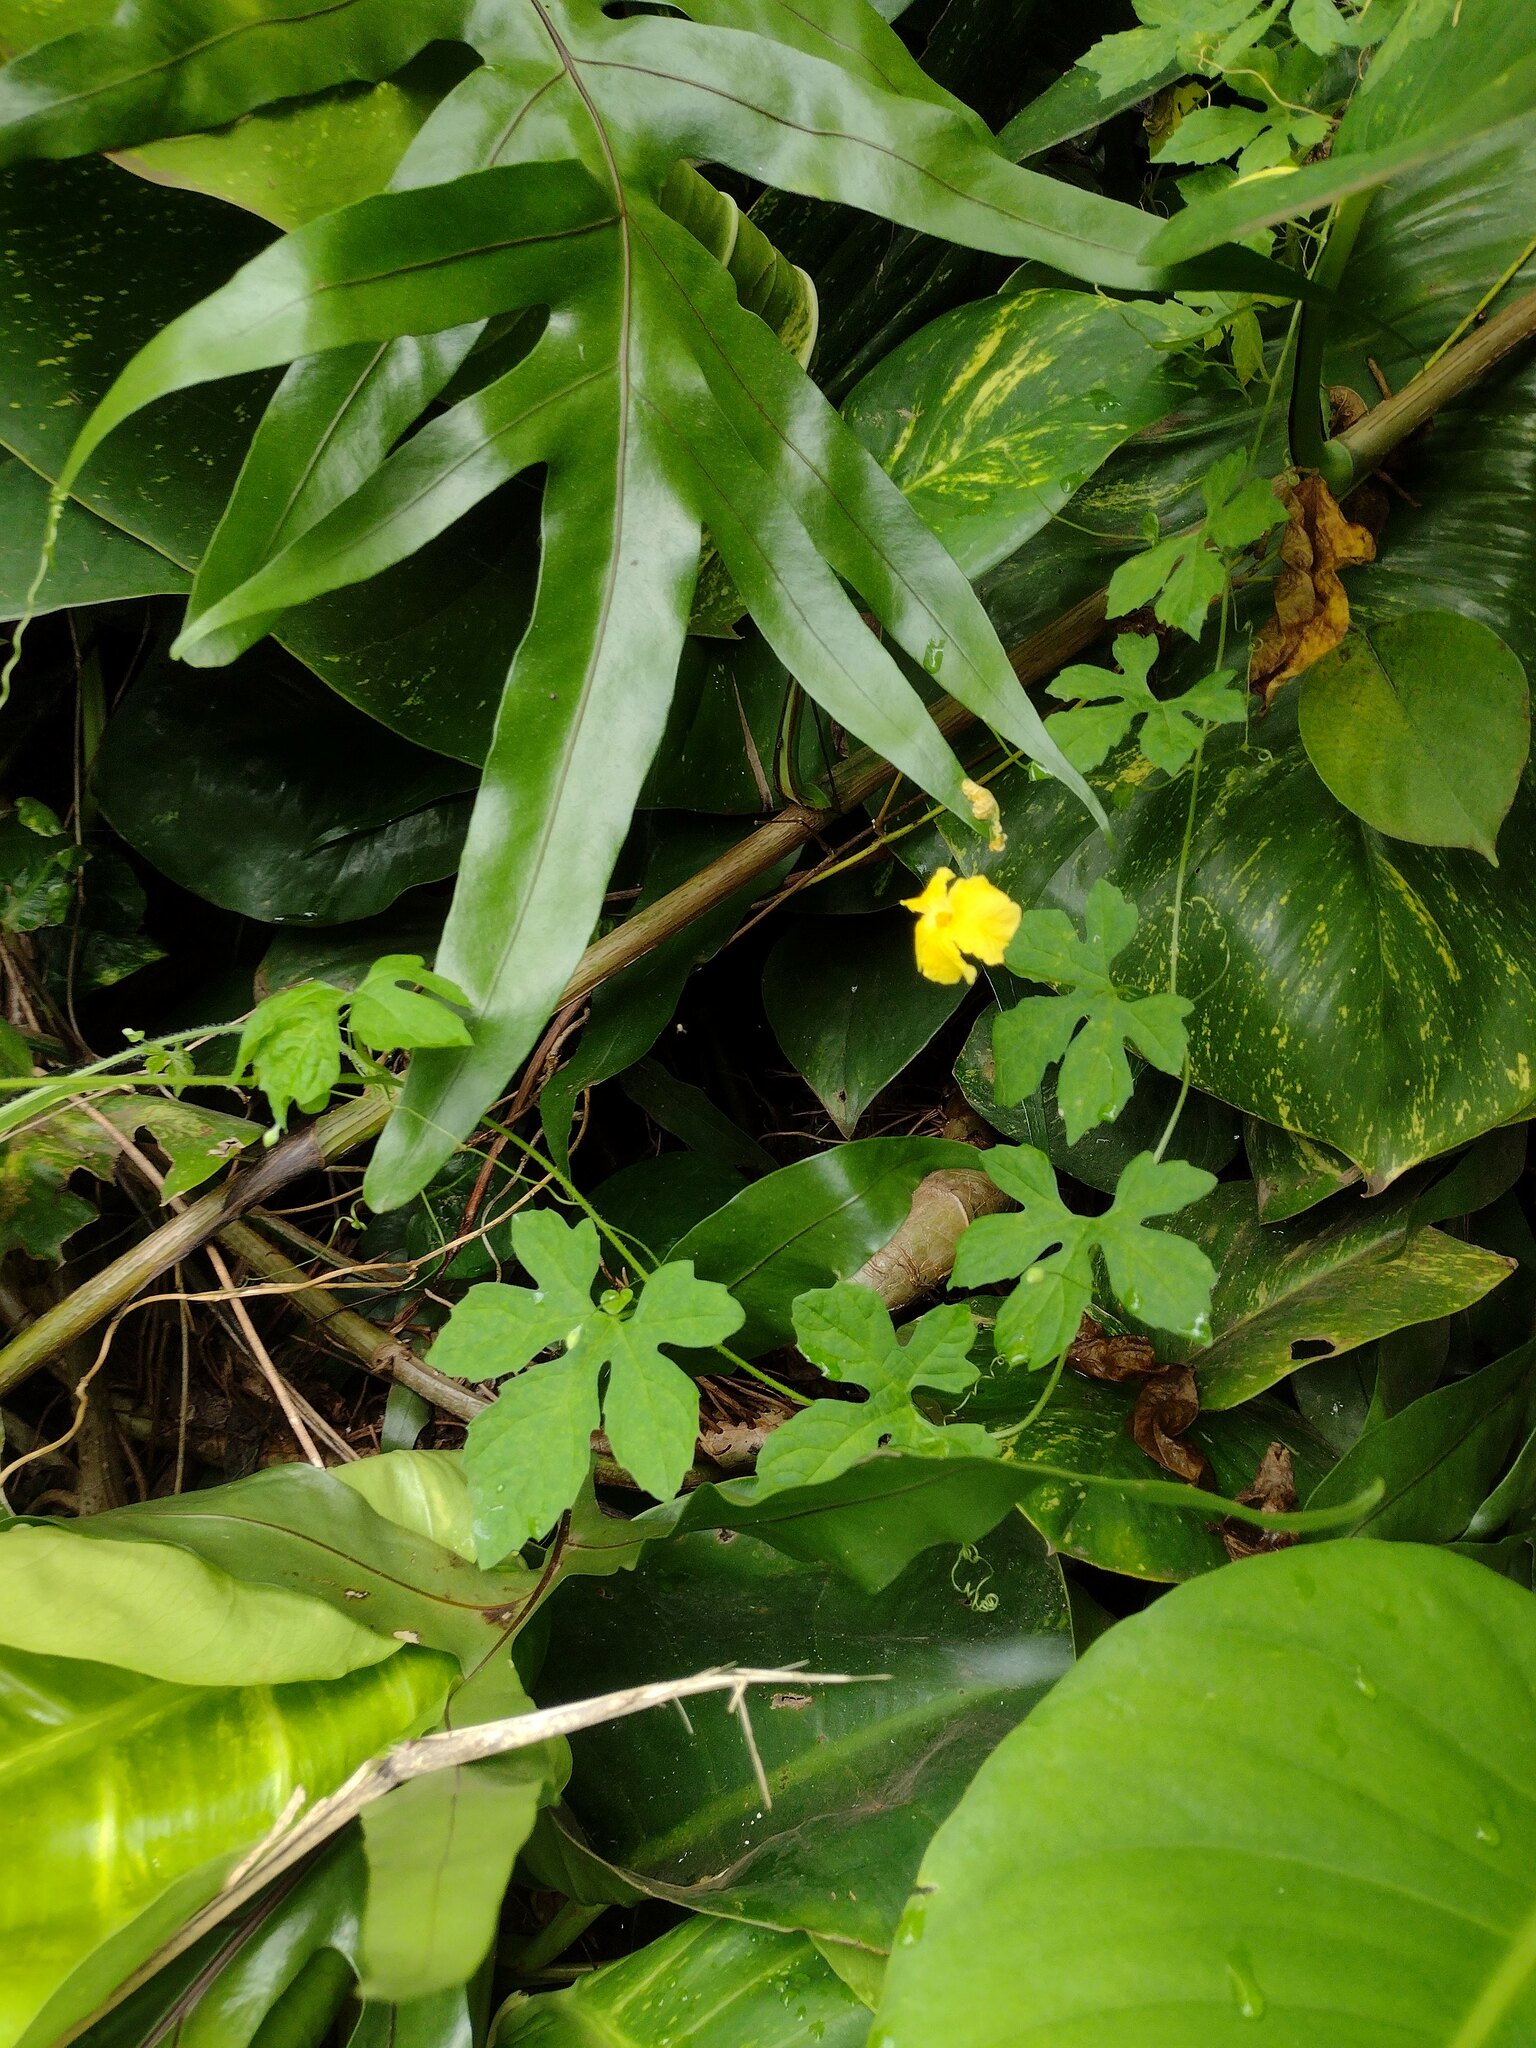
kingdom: Plantae
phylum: Tracheophyta
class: Magnoliopsida
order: Cucurbitales
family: Cucurbitaceae
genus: Momordica
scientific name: Momordica charantia
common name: Balsampear
